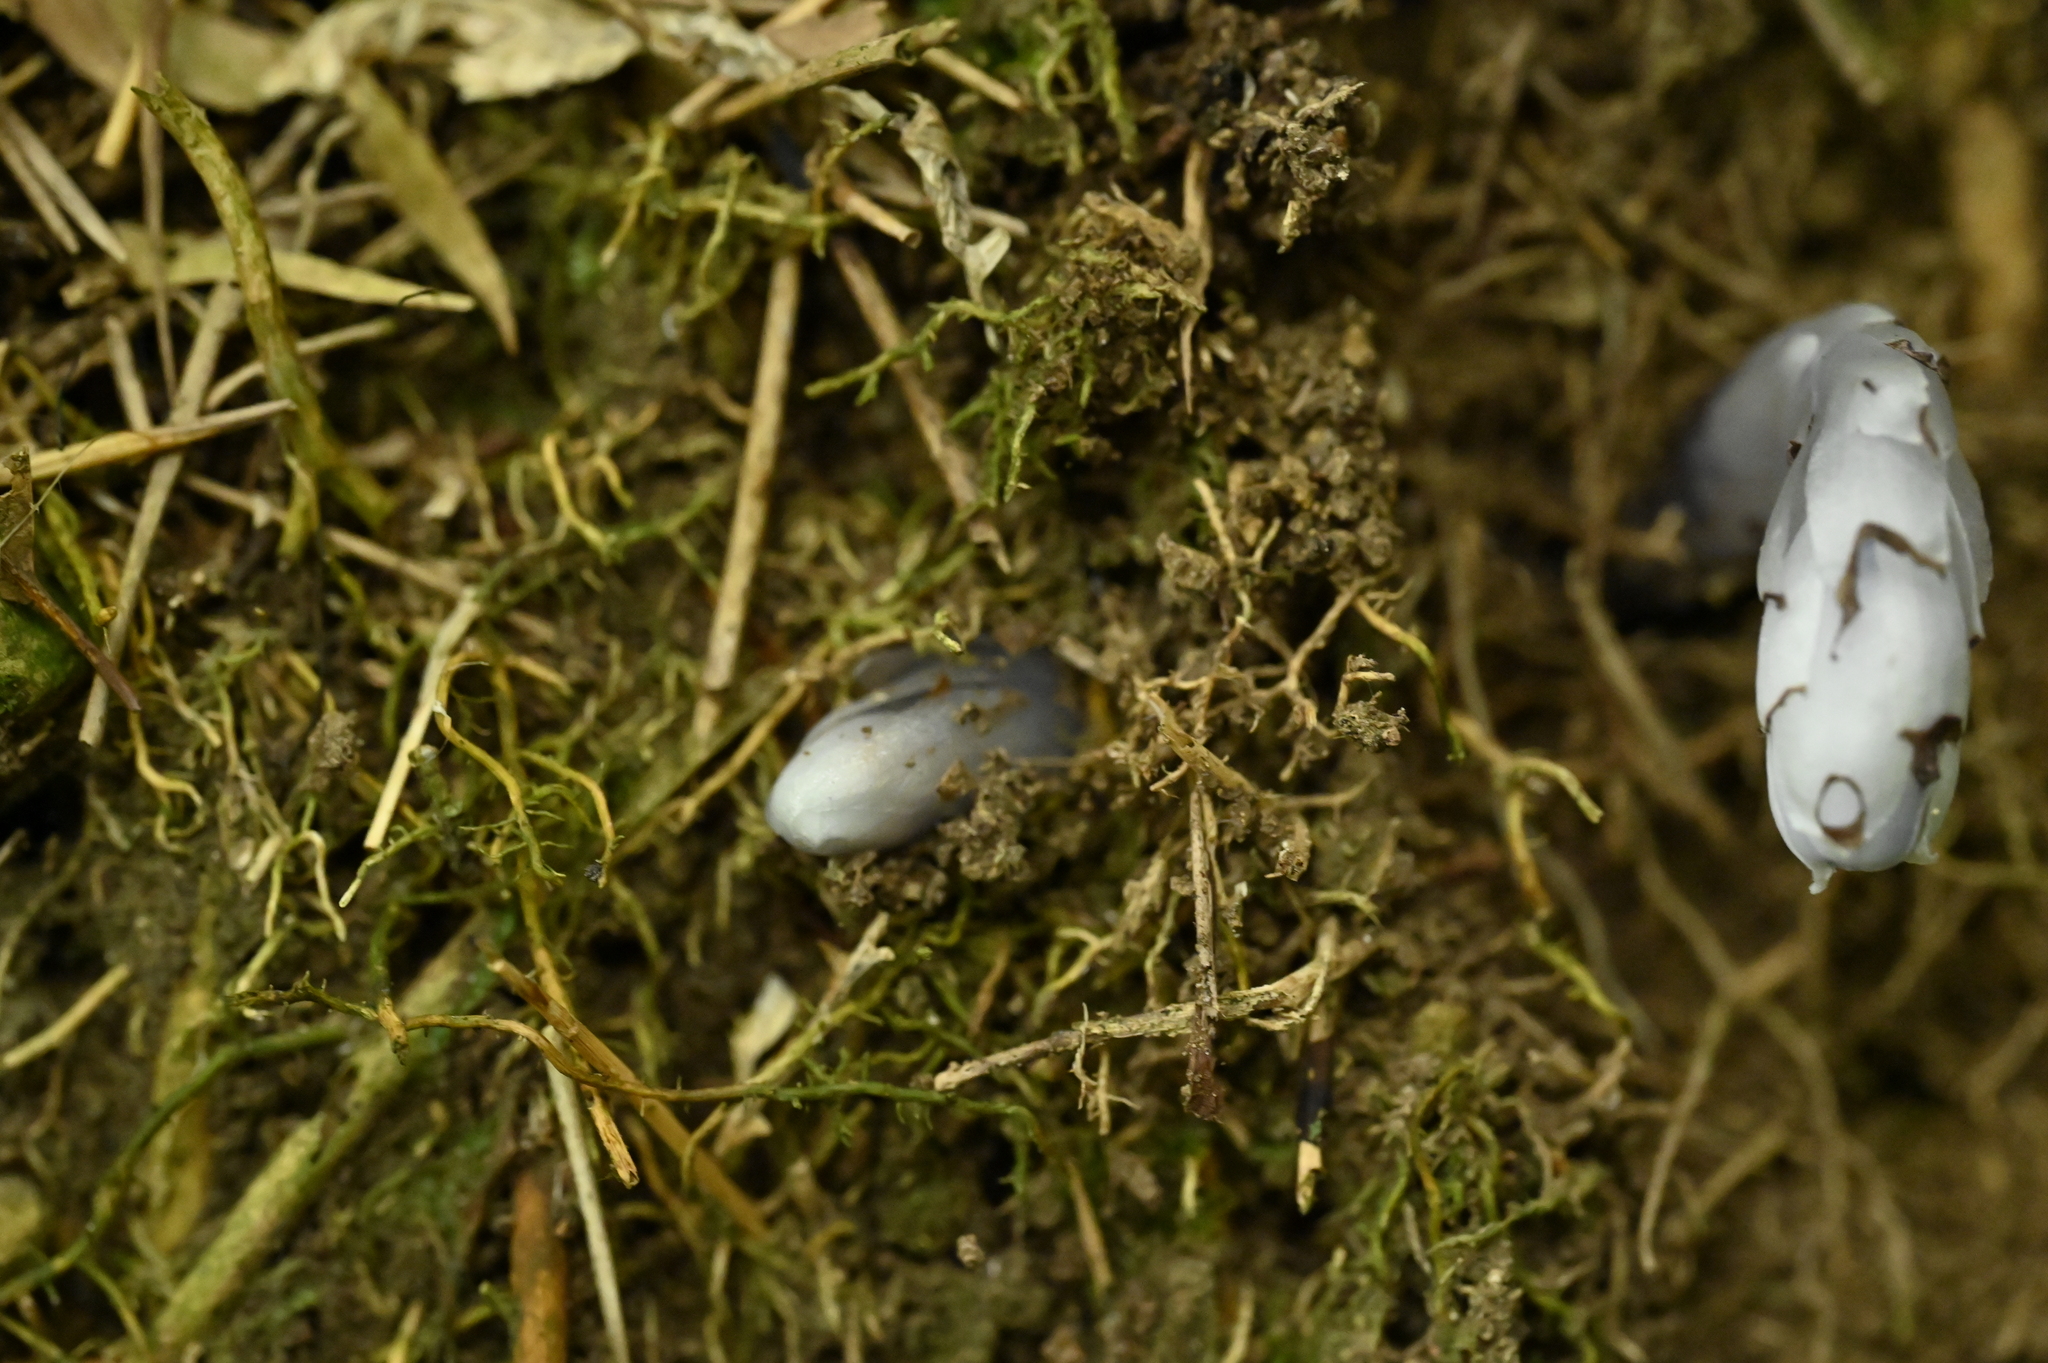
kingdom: Plantae
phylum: Tracheophyta
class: Magnoliopsida
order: Ericales
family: Ericaceae
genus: Monotropastrum
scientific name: Monotropastrum humile
